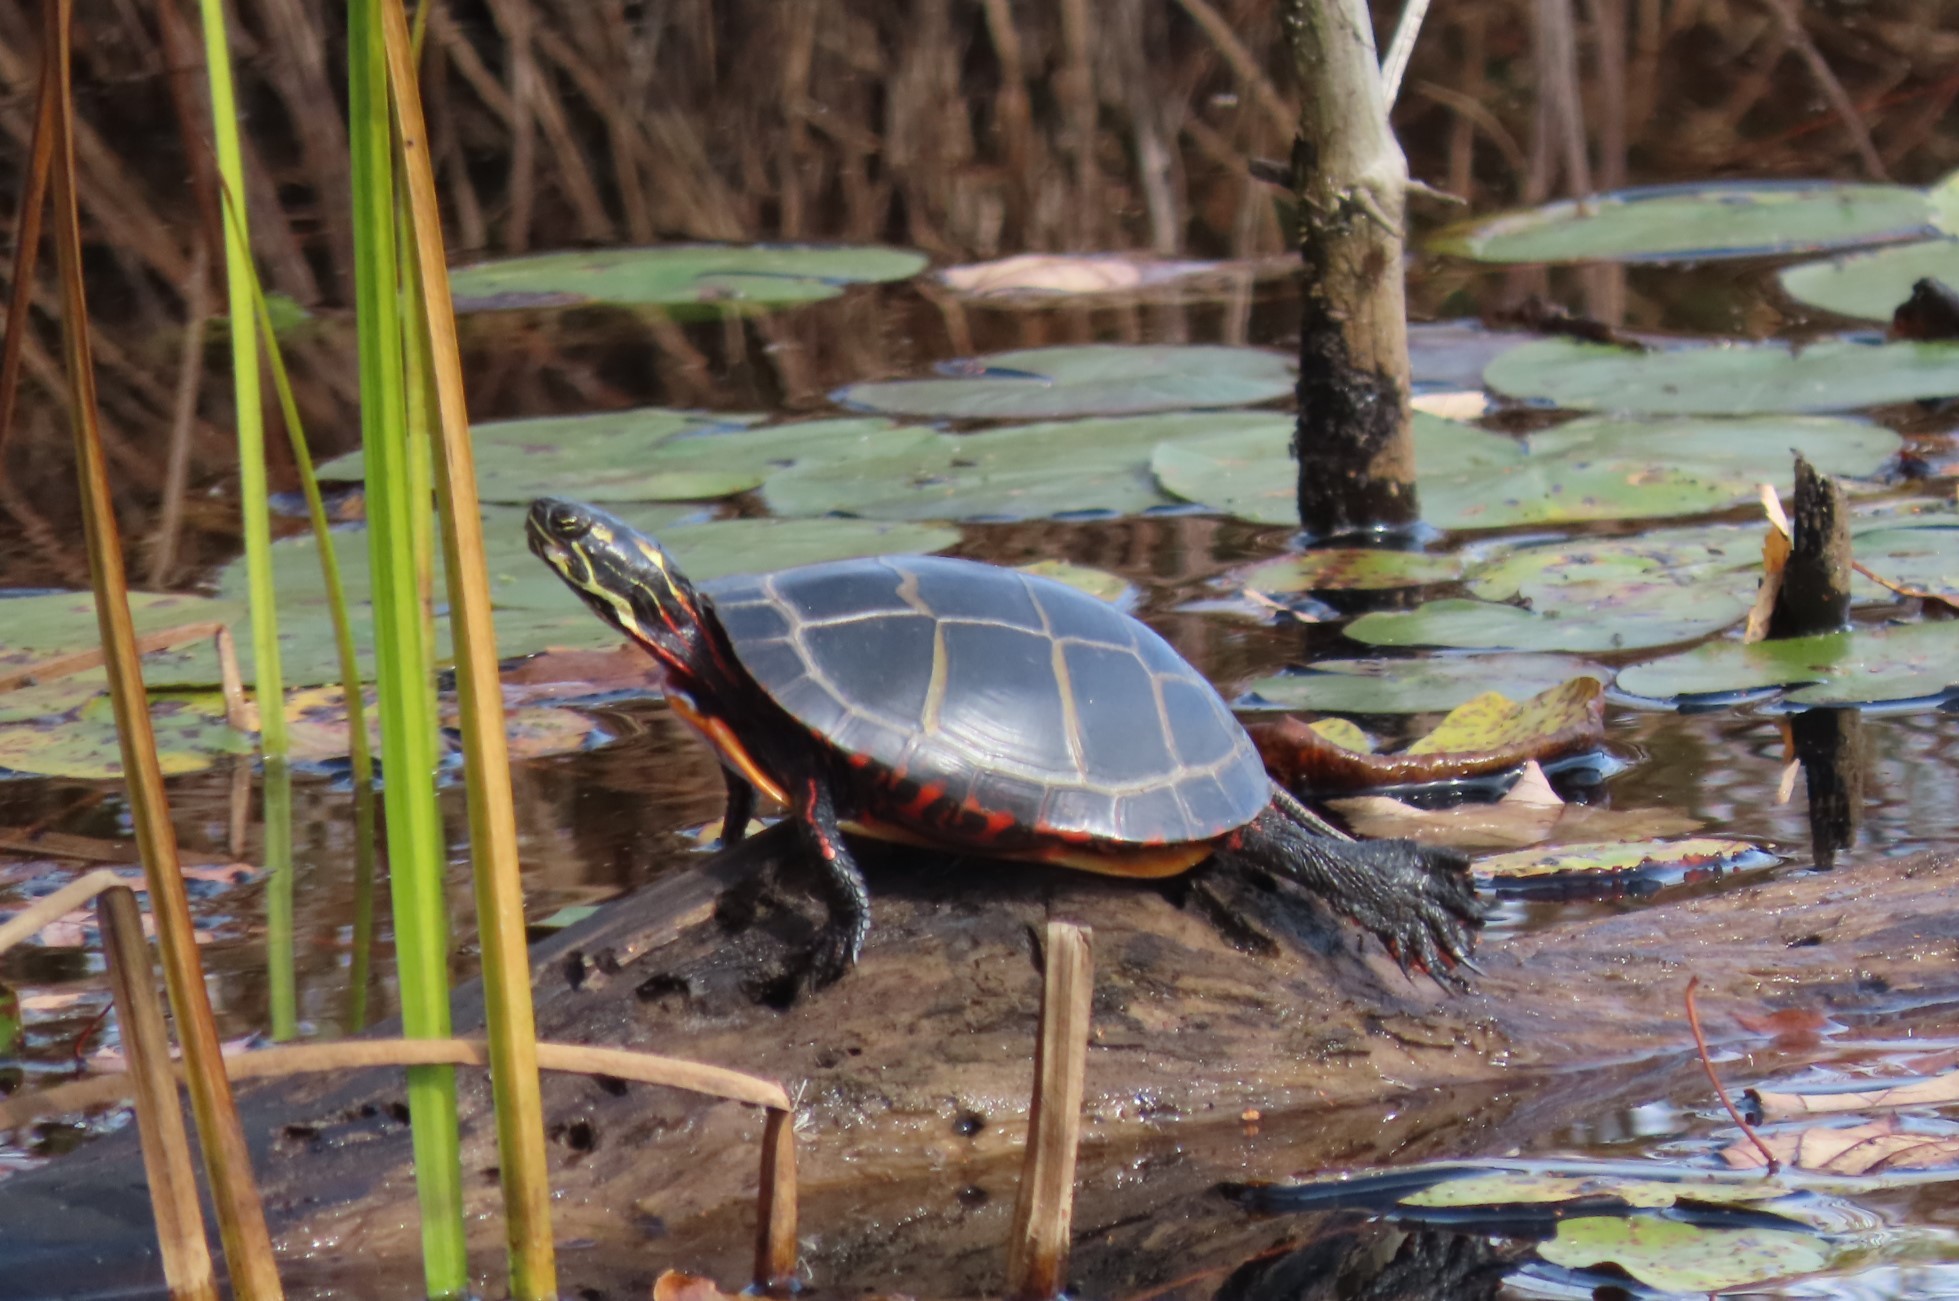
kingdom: Animalia
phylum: Chordata
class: Testudines
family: Emydidae
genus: Chrysemys
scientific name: Chrysemys picta
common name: Painted turtle
